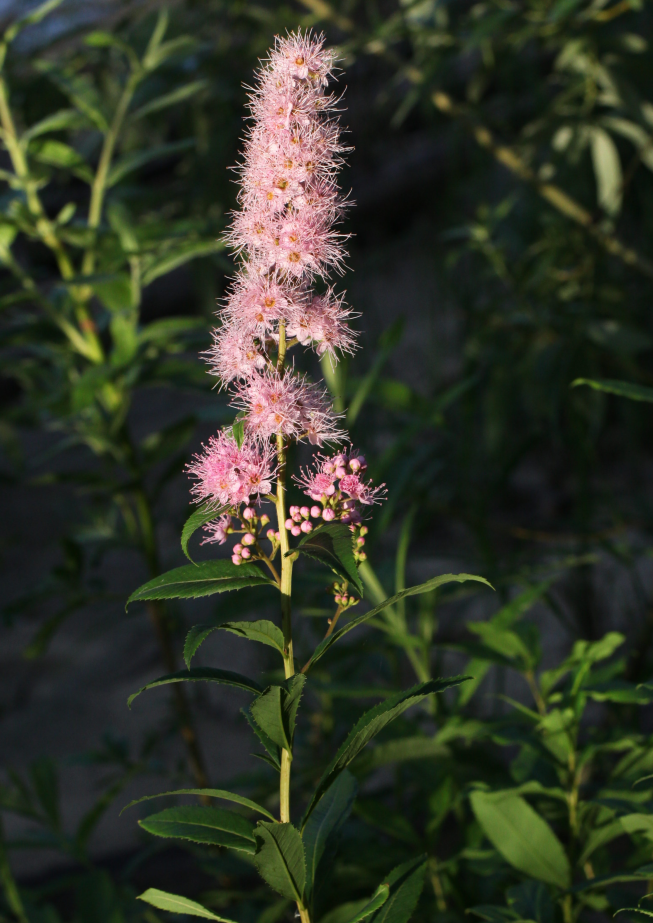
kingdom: Plantae
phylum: Tracheophyta
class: Magnoliopsida
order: Rosales
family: Rosaceae
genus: Spiraea
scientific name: Spiraea salicifolia
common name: Bridewort
